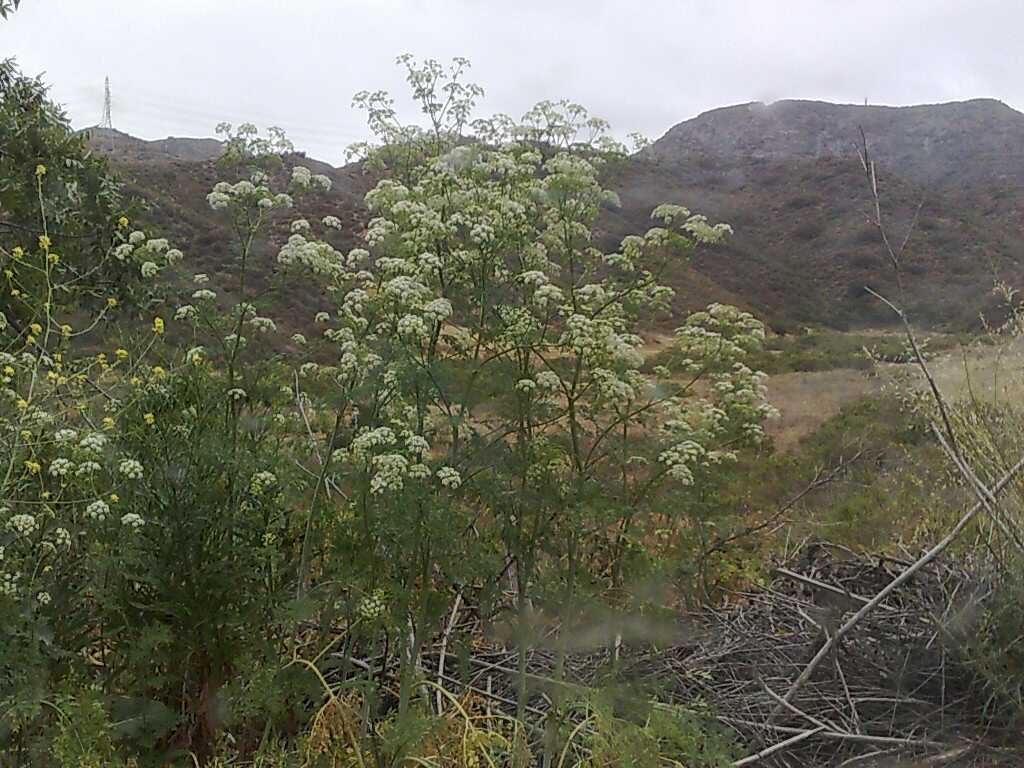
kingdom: Plantae
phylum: Tracheophyta
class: Magnoliopsida
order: Apiales
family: Apiaceae
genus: Conium
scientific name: Conium maculatum
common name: Hemlock
